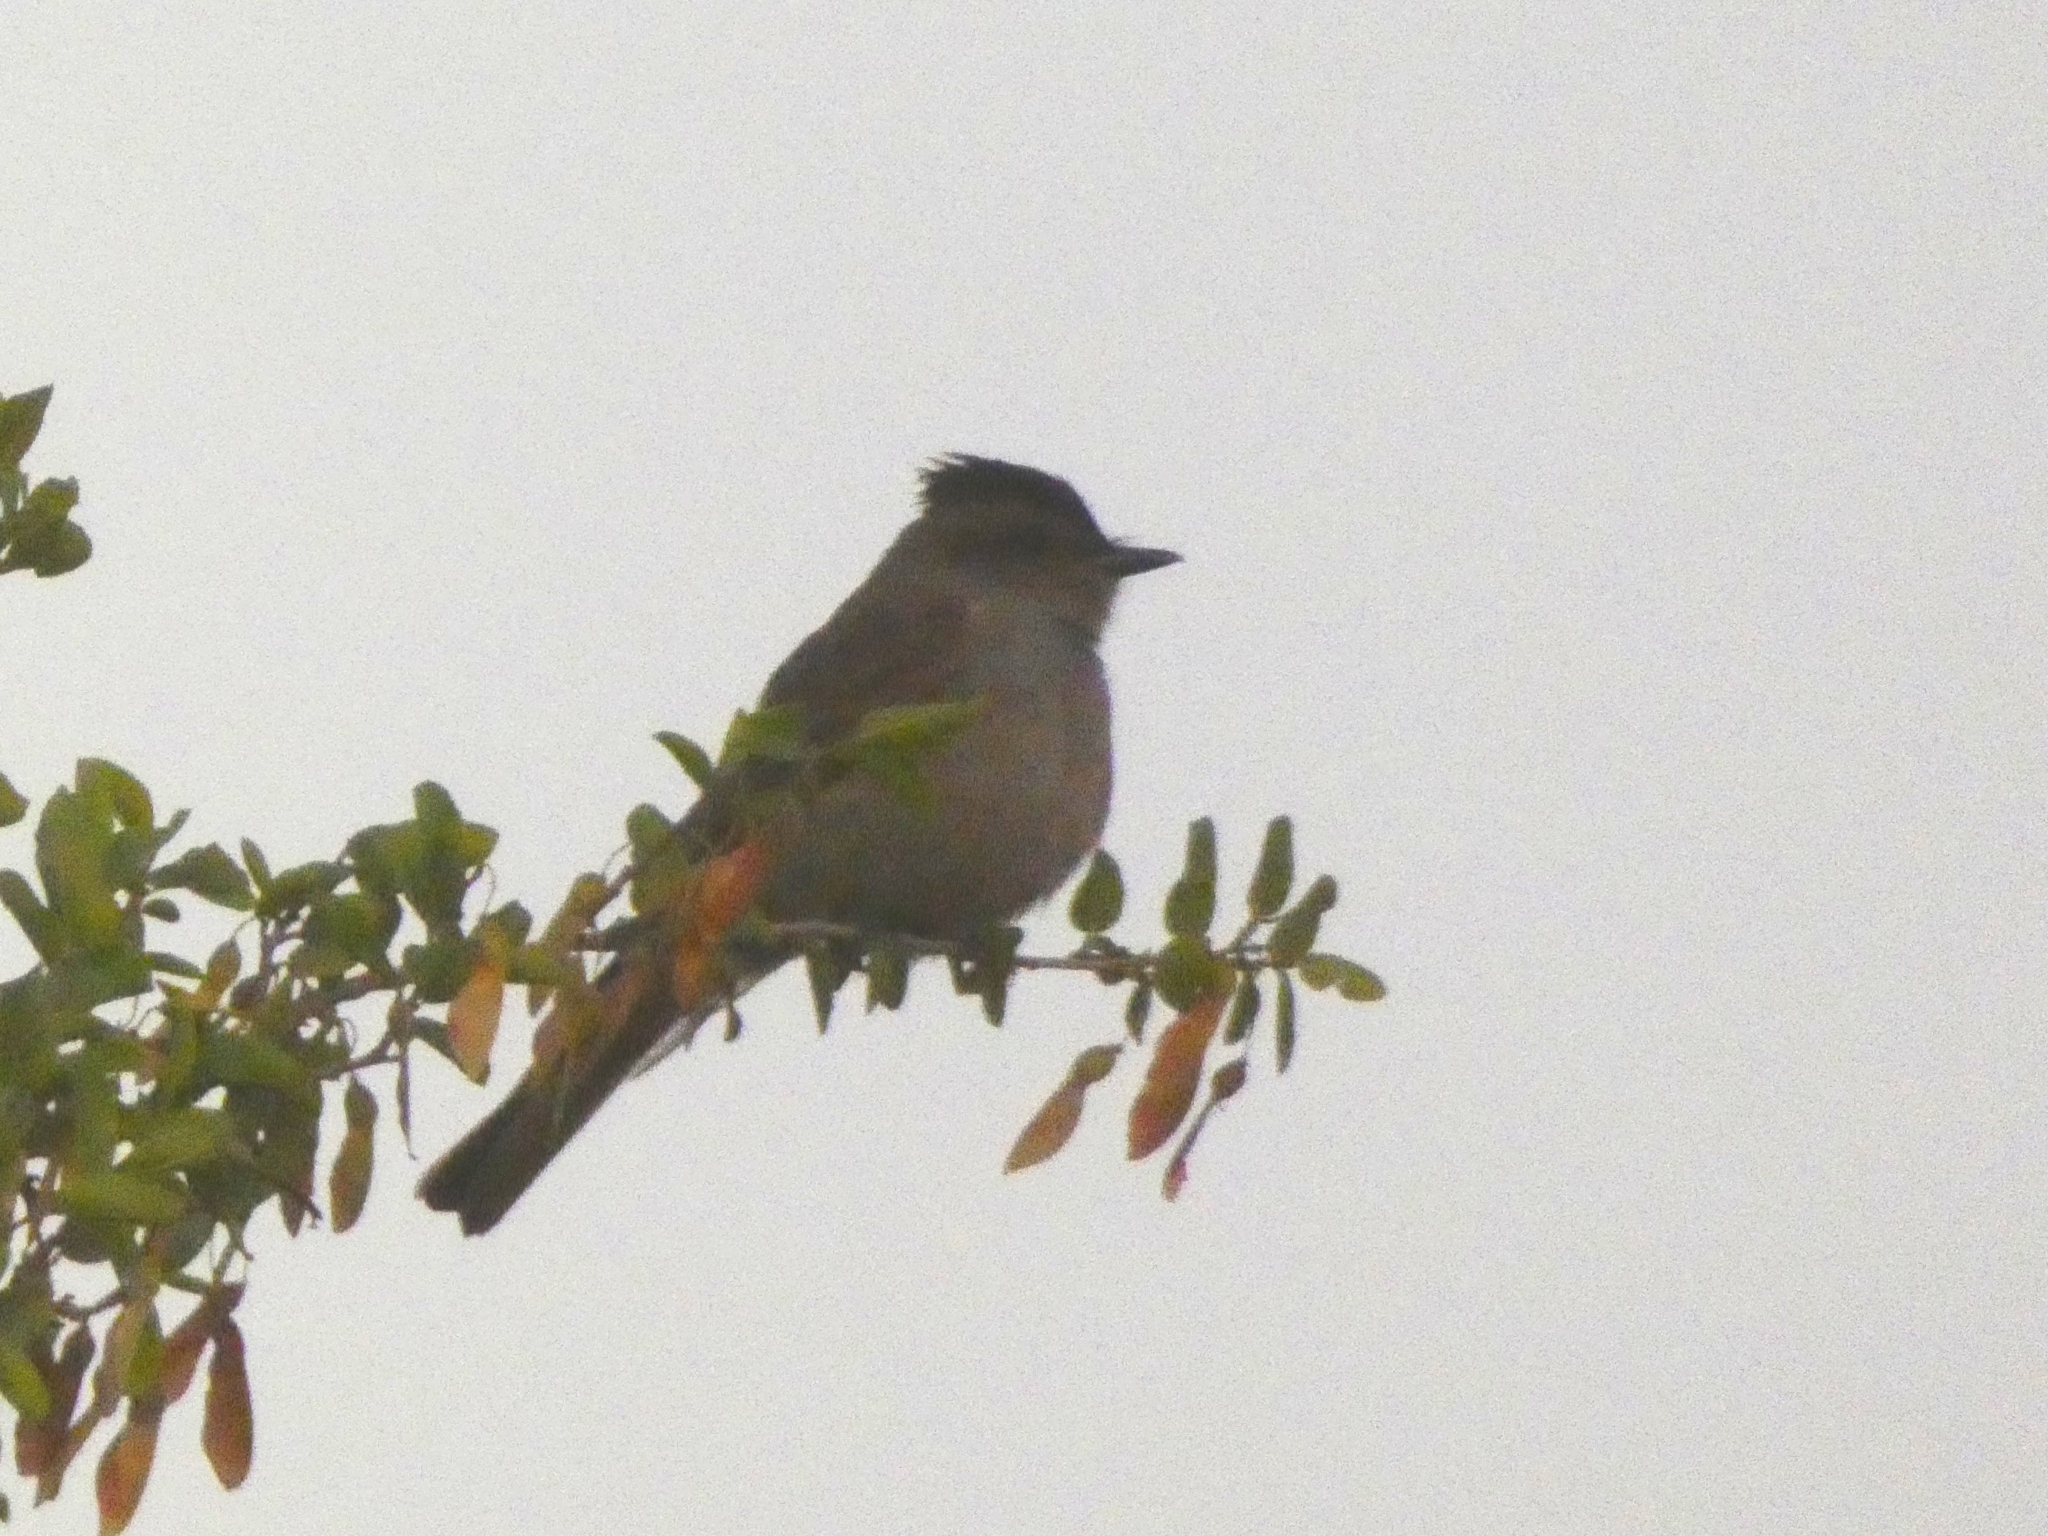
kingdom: Animalia
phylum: Chordata
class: Aves
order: Passeriformes
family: Tyrannidae
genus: Empidonomus
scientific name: Empidonomus aurantioatrocristatus
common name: Crowned slaty flycatcher
